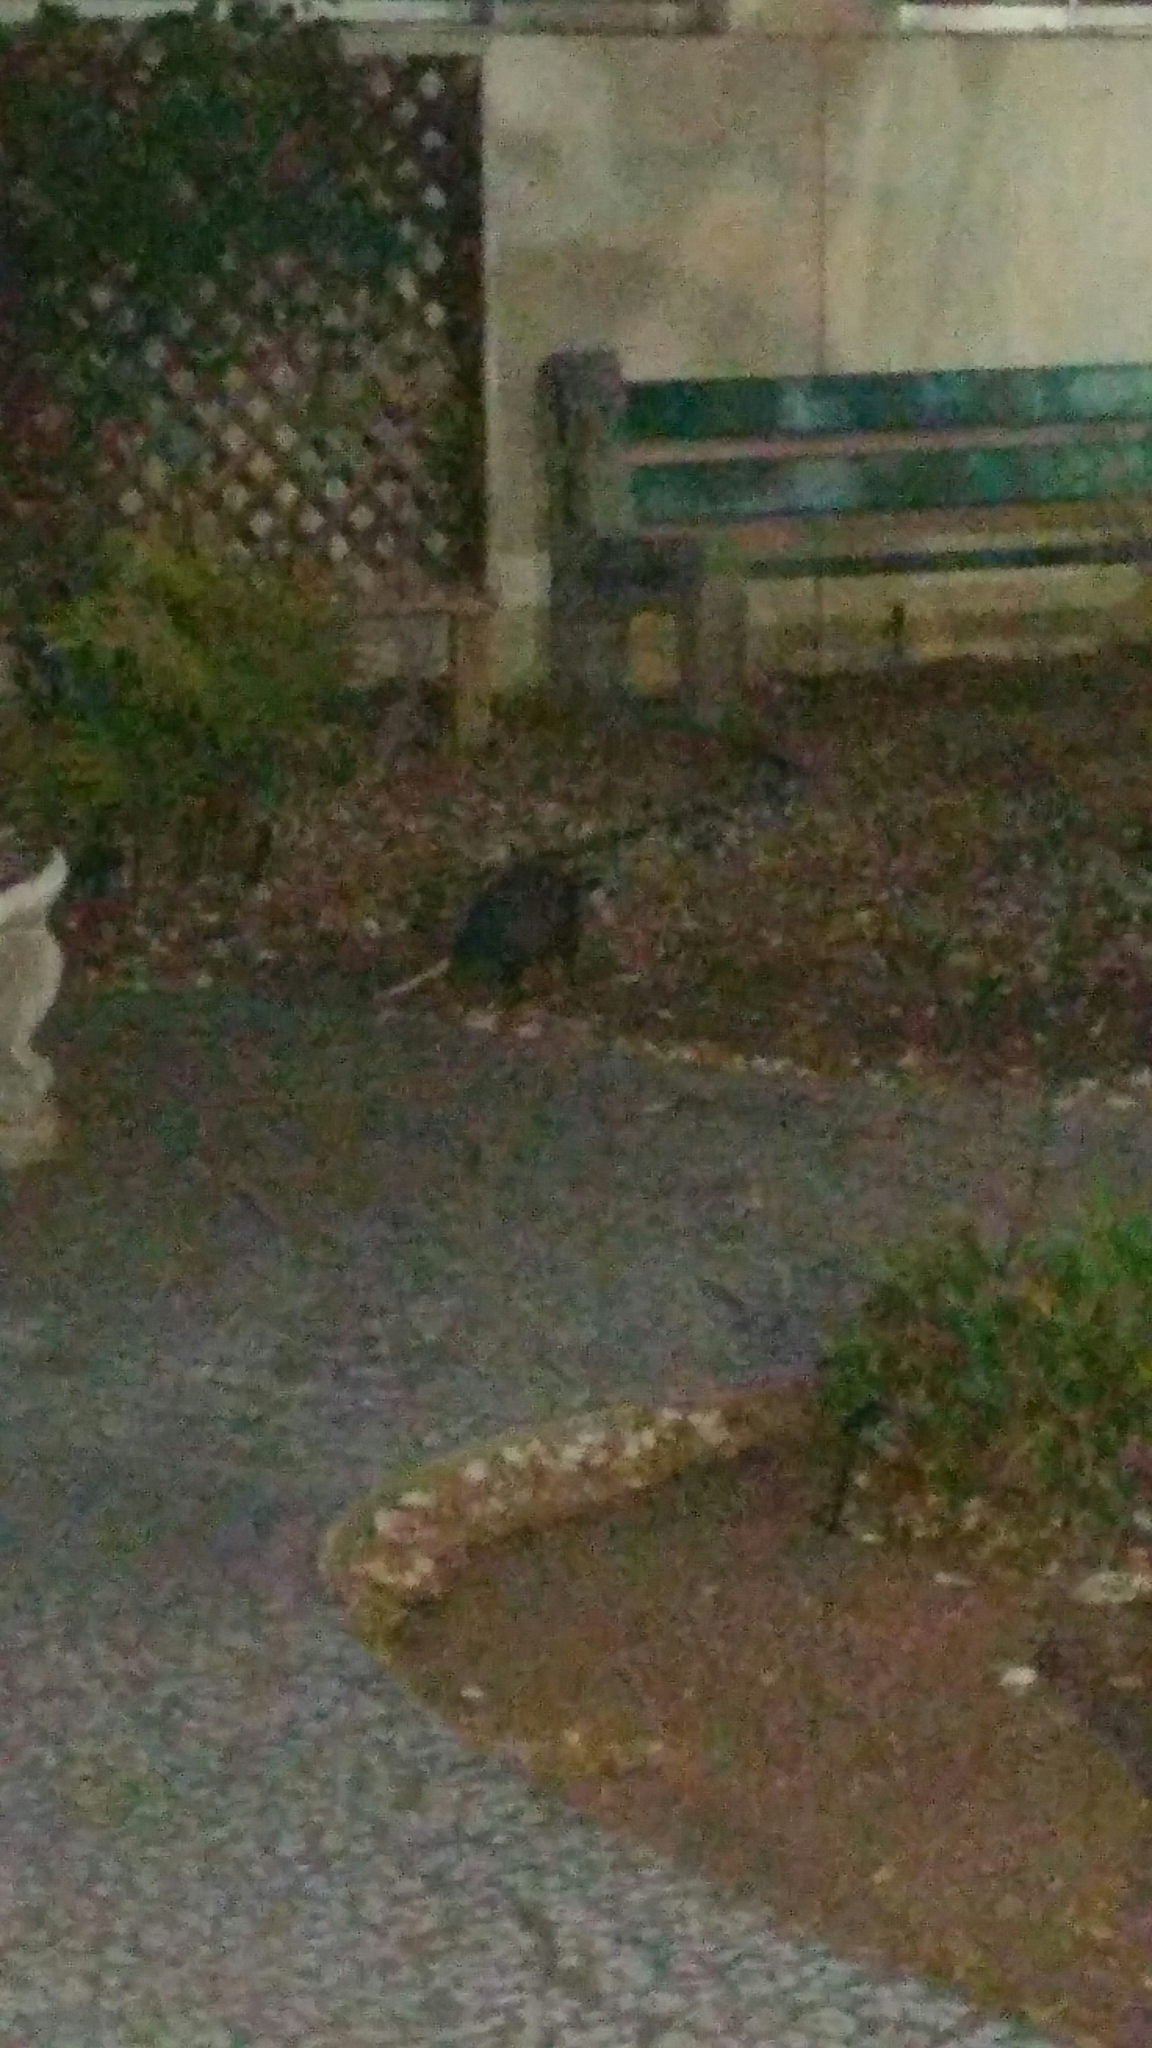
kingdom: Animalia
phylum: Chordata
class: Mammalia
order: Didelphimorphia
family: Didelphidae
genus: Didelphis
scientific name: Didelphis virginiana
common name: Virginia opossum
